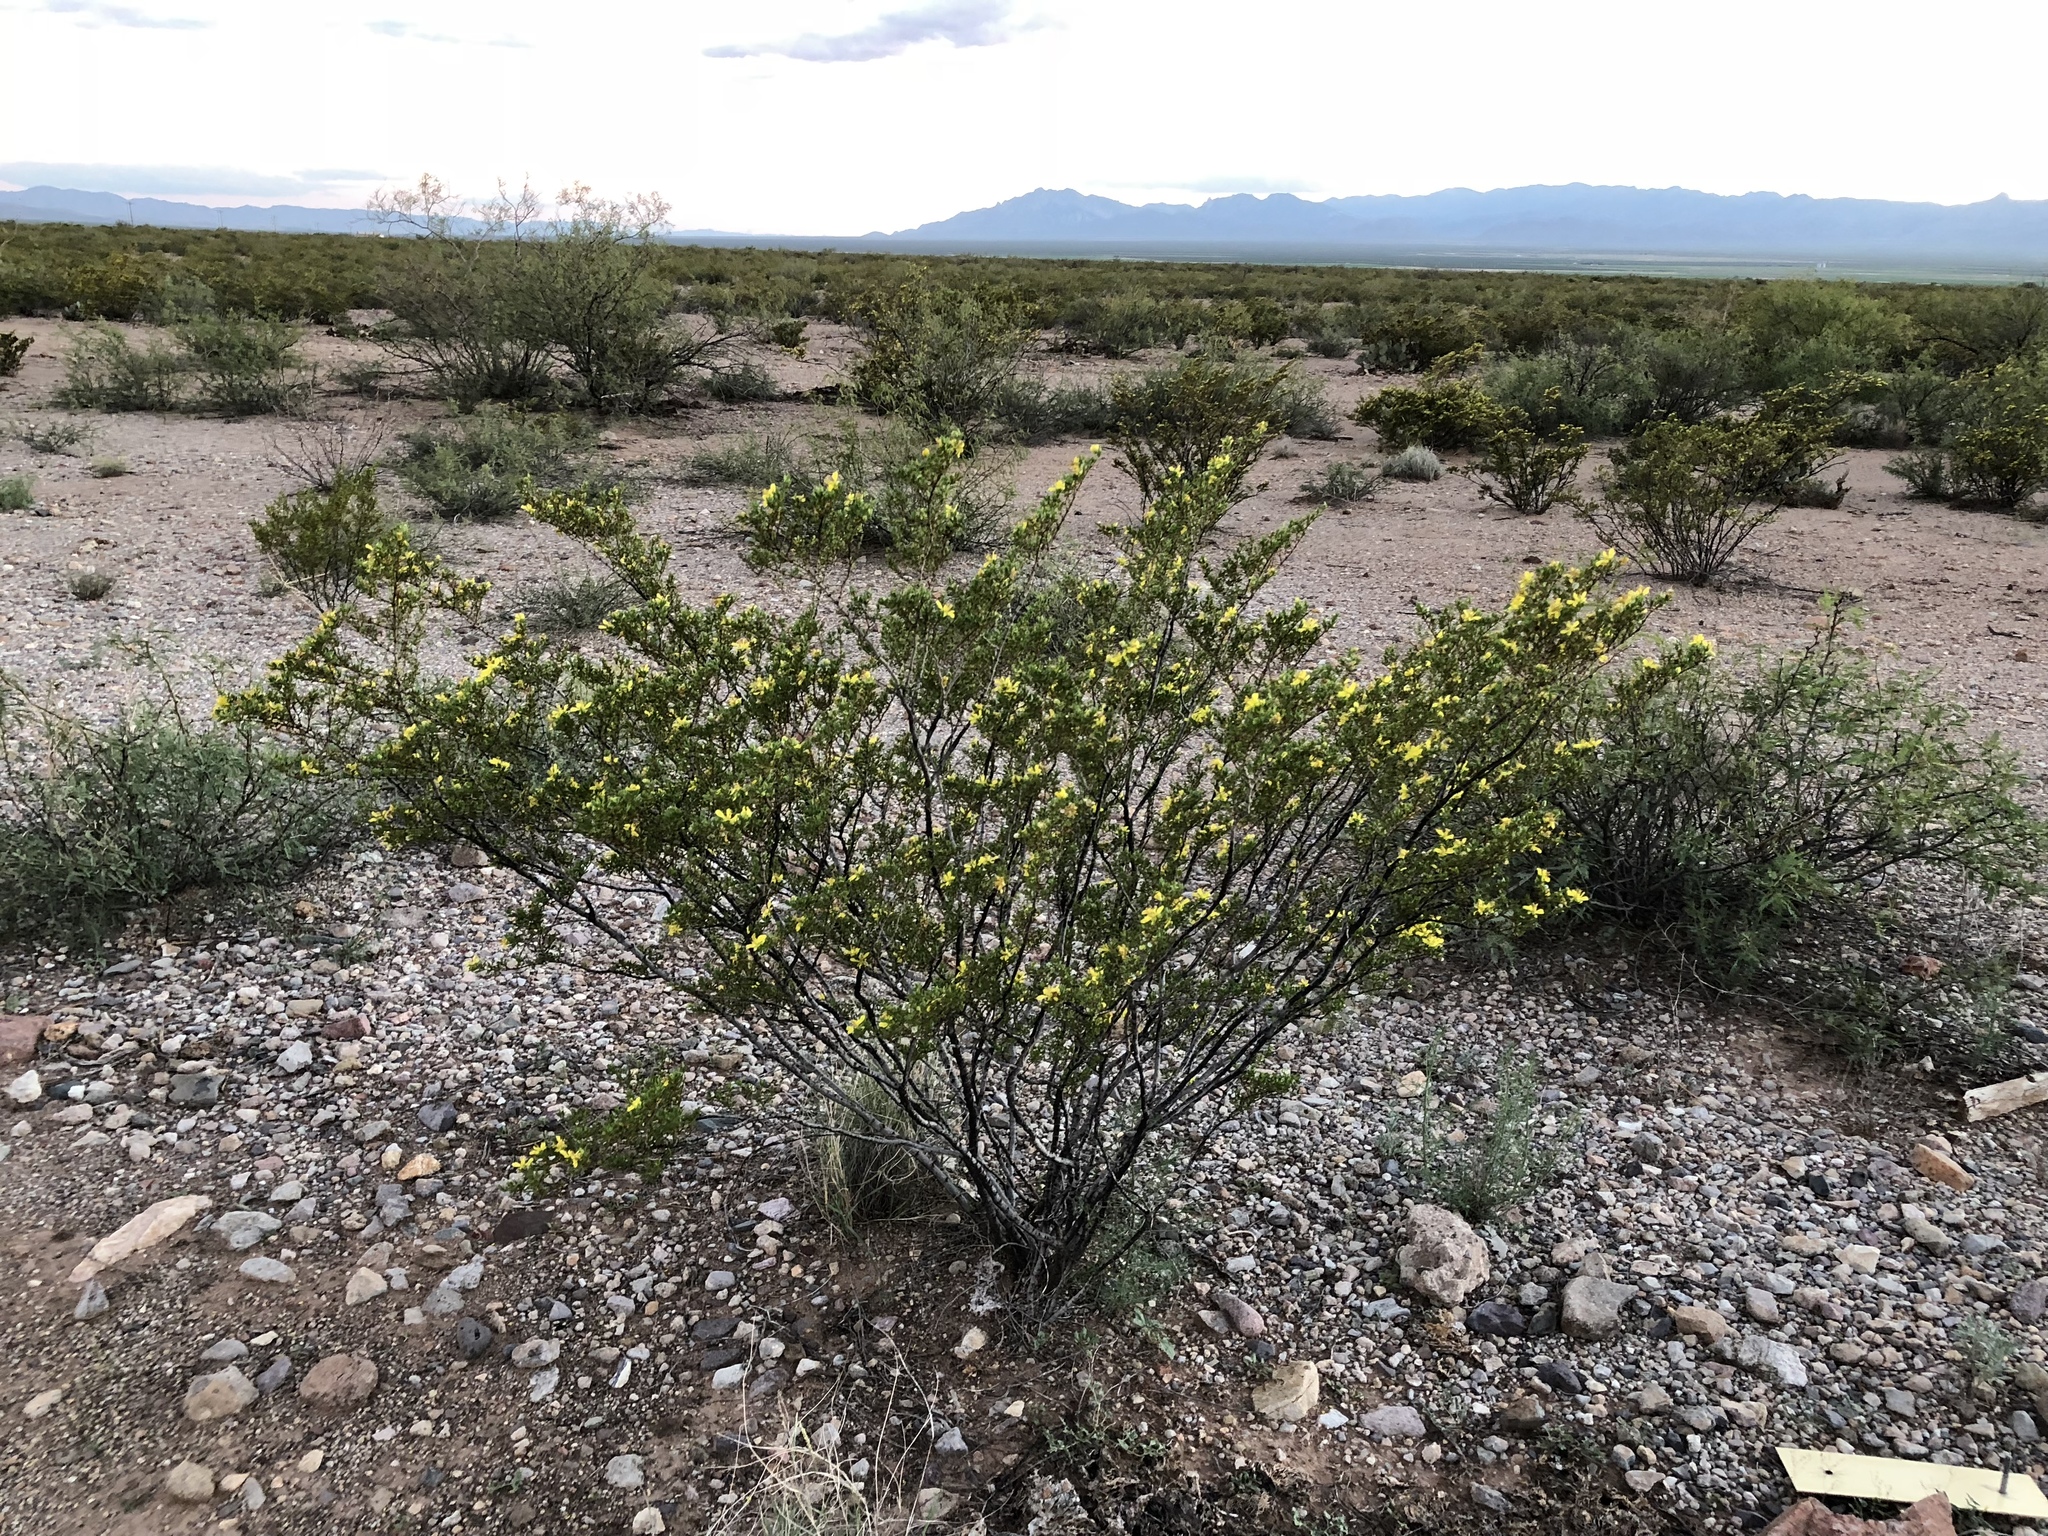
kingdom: Plantae
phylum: Tracheophyta
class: Magnoliopsida
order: Zygophyllales
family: Zygophyllaceae
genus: Larrea
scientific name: Larrea tridentata
